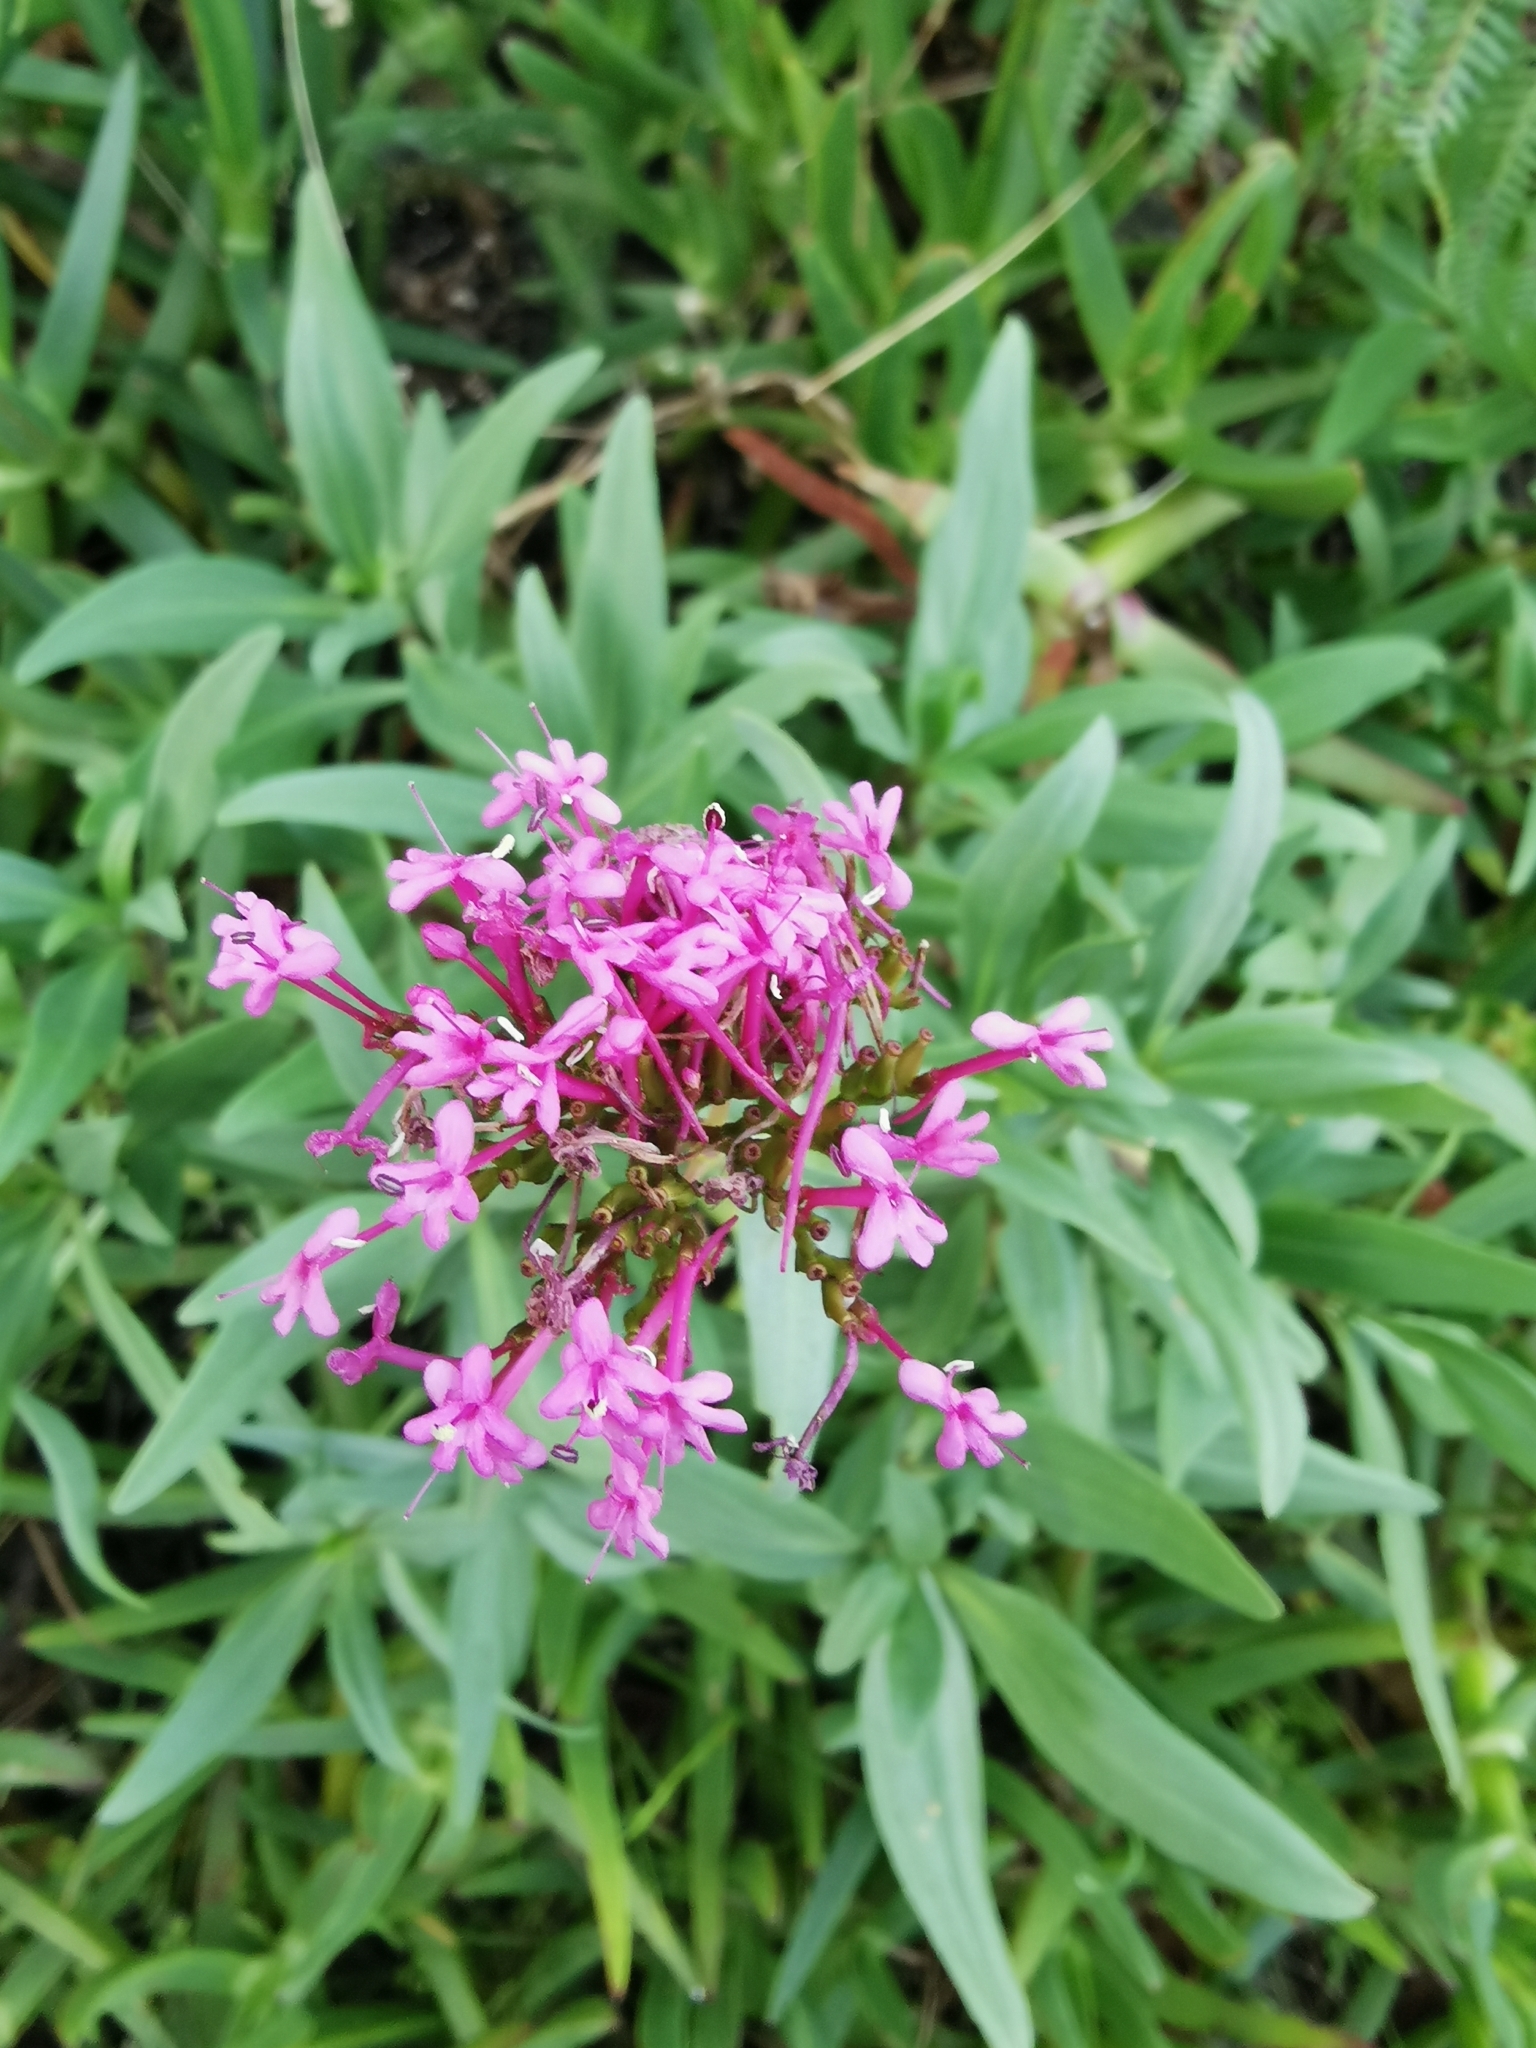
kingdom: Plantae
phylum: Tracheophyta
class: Magnoliopsida
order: Dipsacales
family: Caprifoliaceae
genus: Centranthus
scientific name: Centranthus ruber
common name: Red valerian
